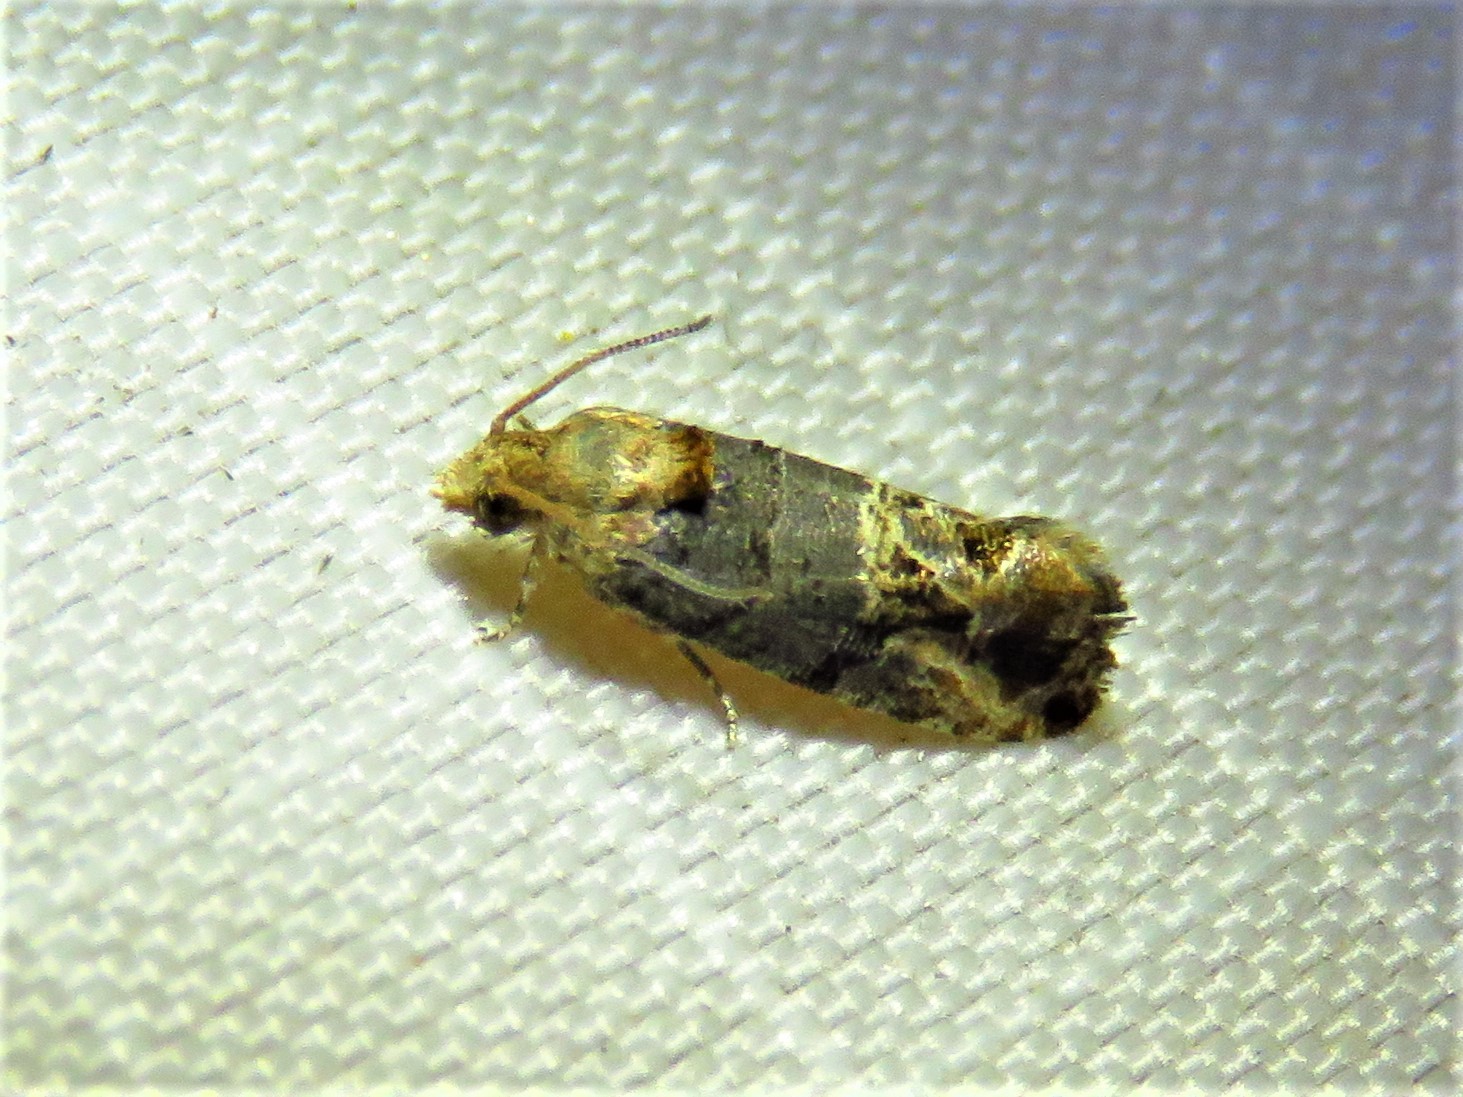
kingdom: Animalia
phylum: Arthropoda
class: Insecta
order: Lepidoptera
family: Tortricidae
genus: Paralobesia
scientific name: Paralobesia viteana
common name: Grape berry moth
